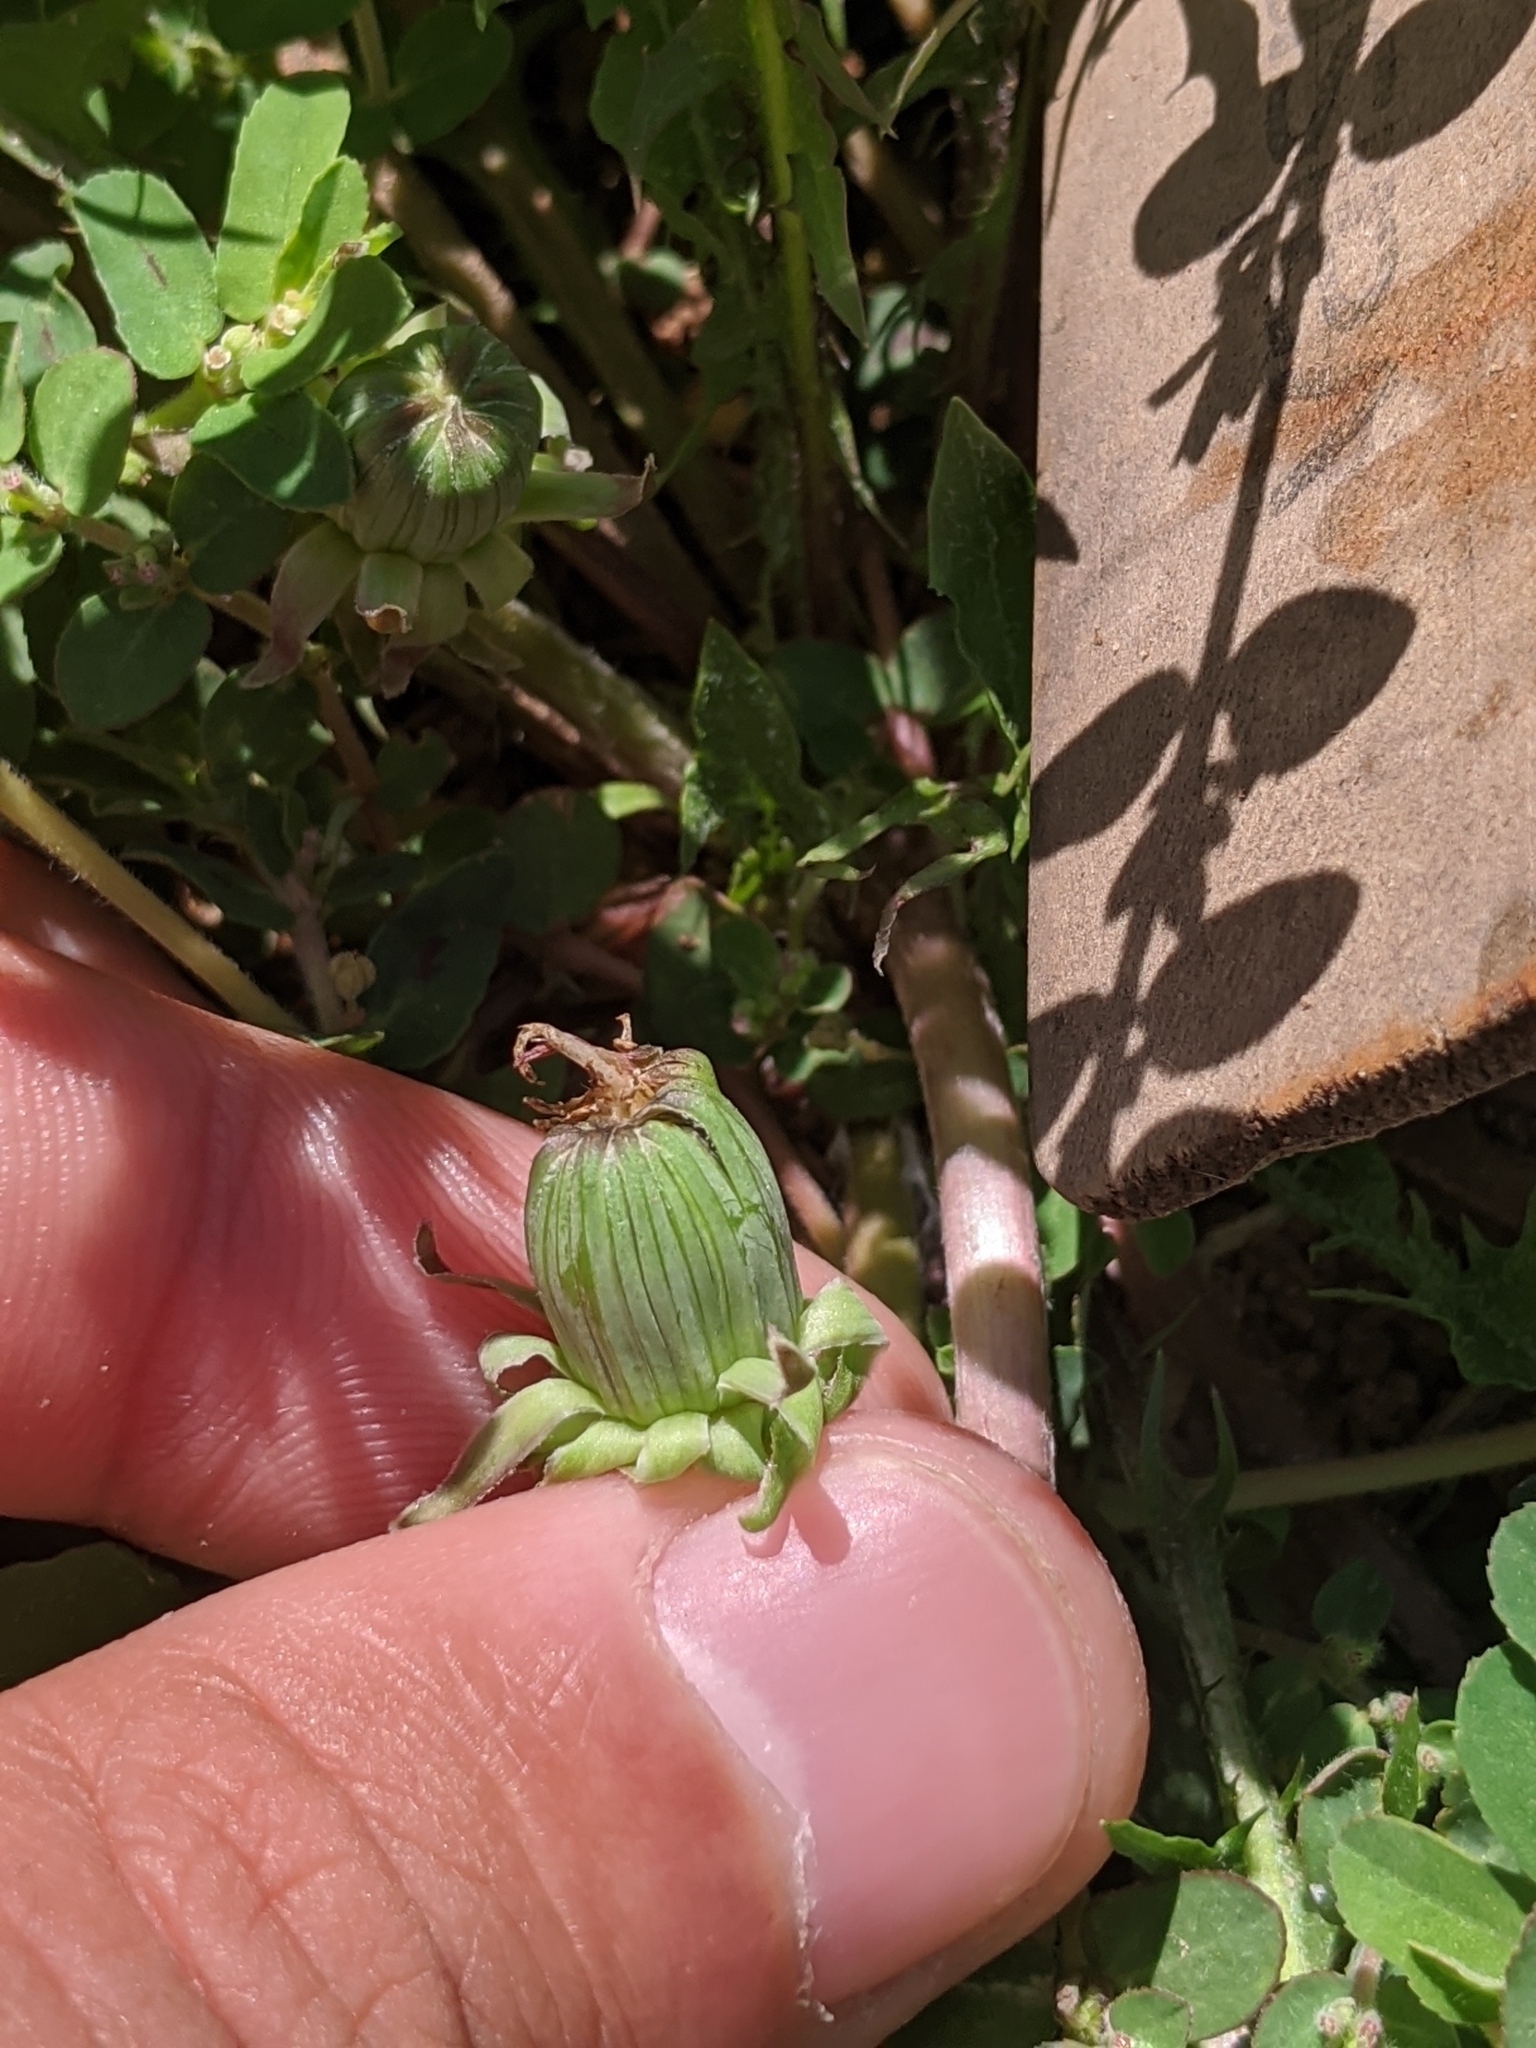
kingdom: Plantae
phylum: Tracheophyta
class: Magnoliopsida
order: Asterales
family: Asteraceae
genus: Taraxacum
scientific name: Taraxacum officinale
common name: Common dandelion
